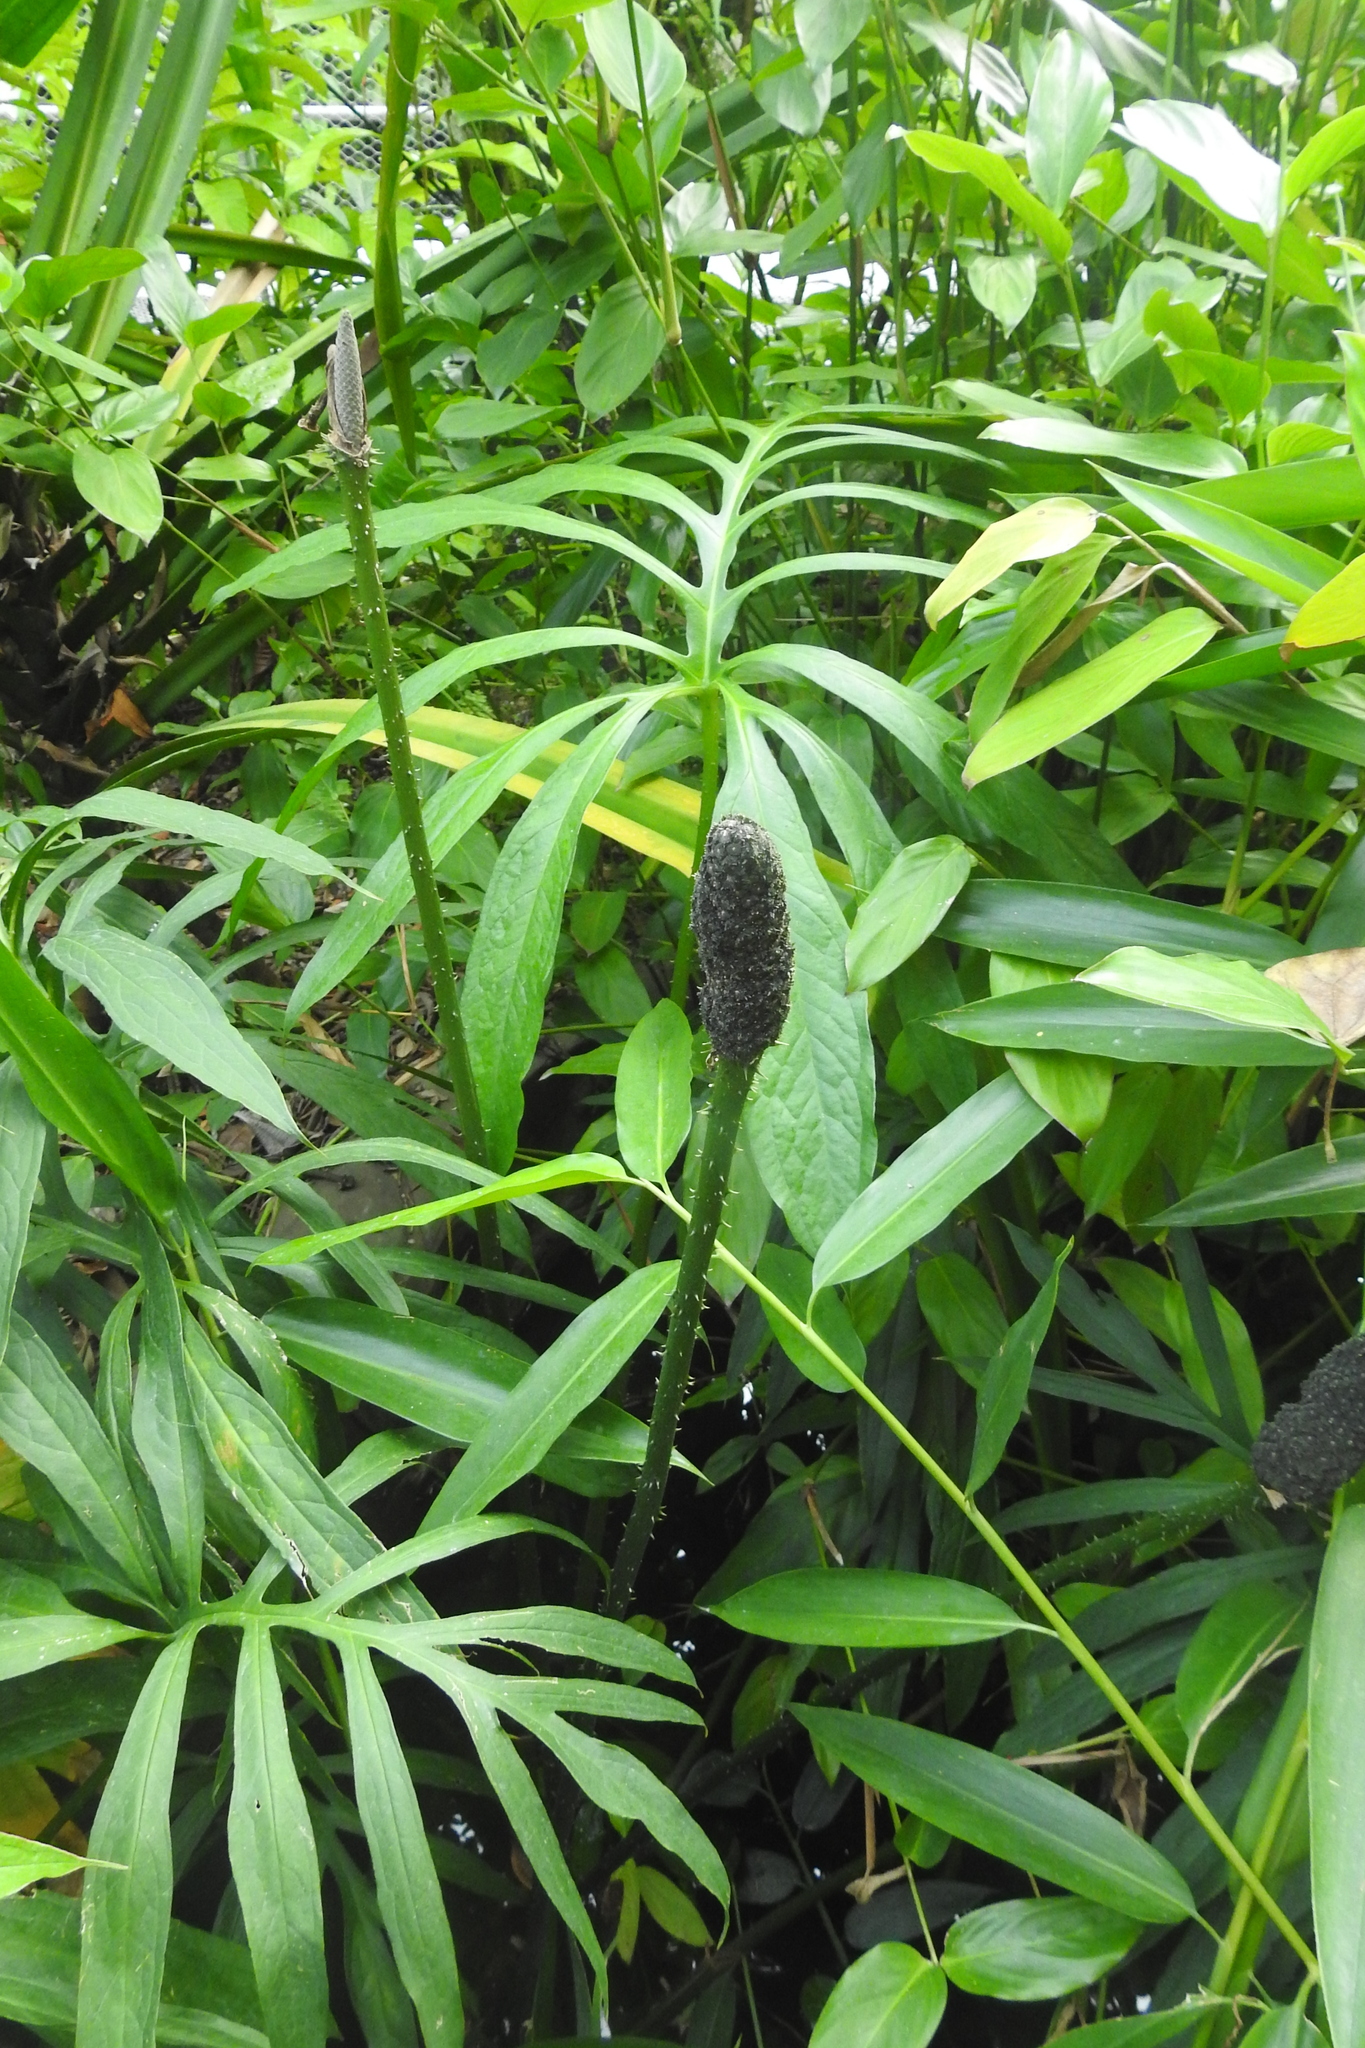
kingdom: Plantae
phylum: Tracheophyta
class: Liliopsida
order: Alismatales
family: Araceae
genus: Lasia
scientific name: Lasia spinosa
